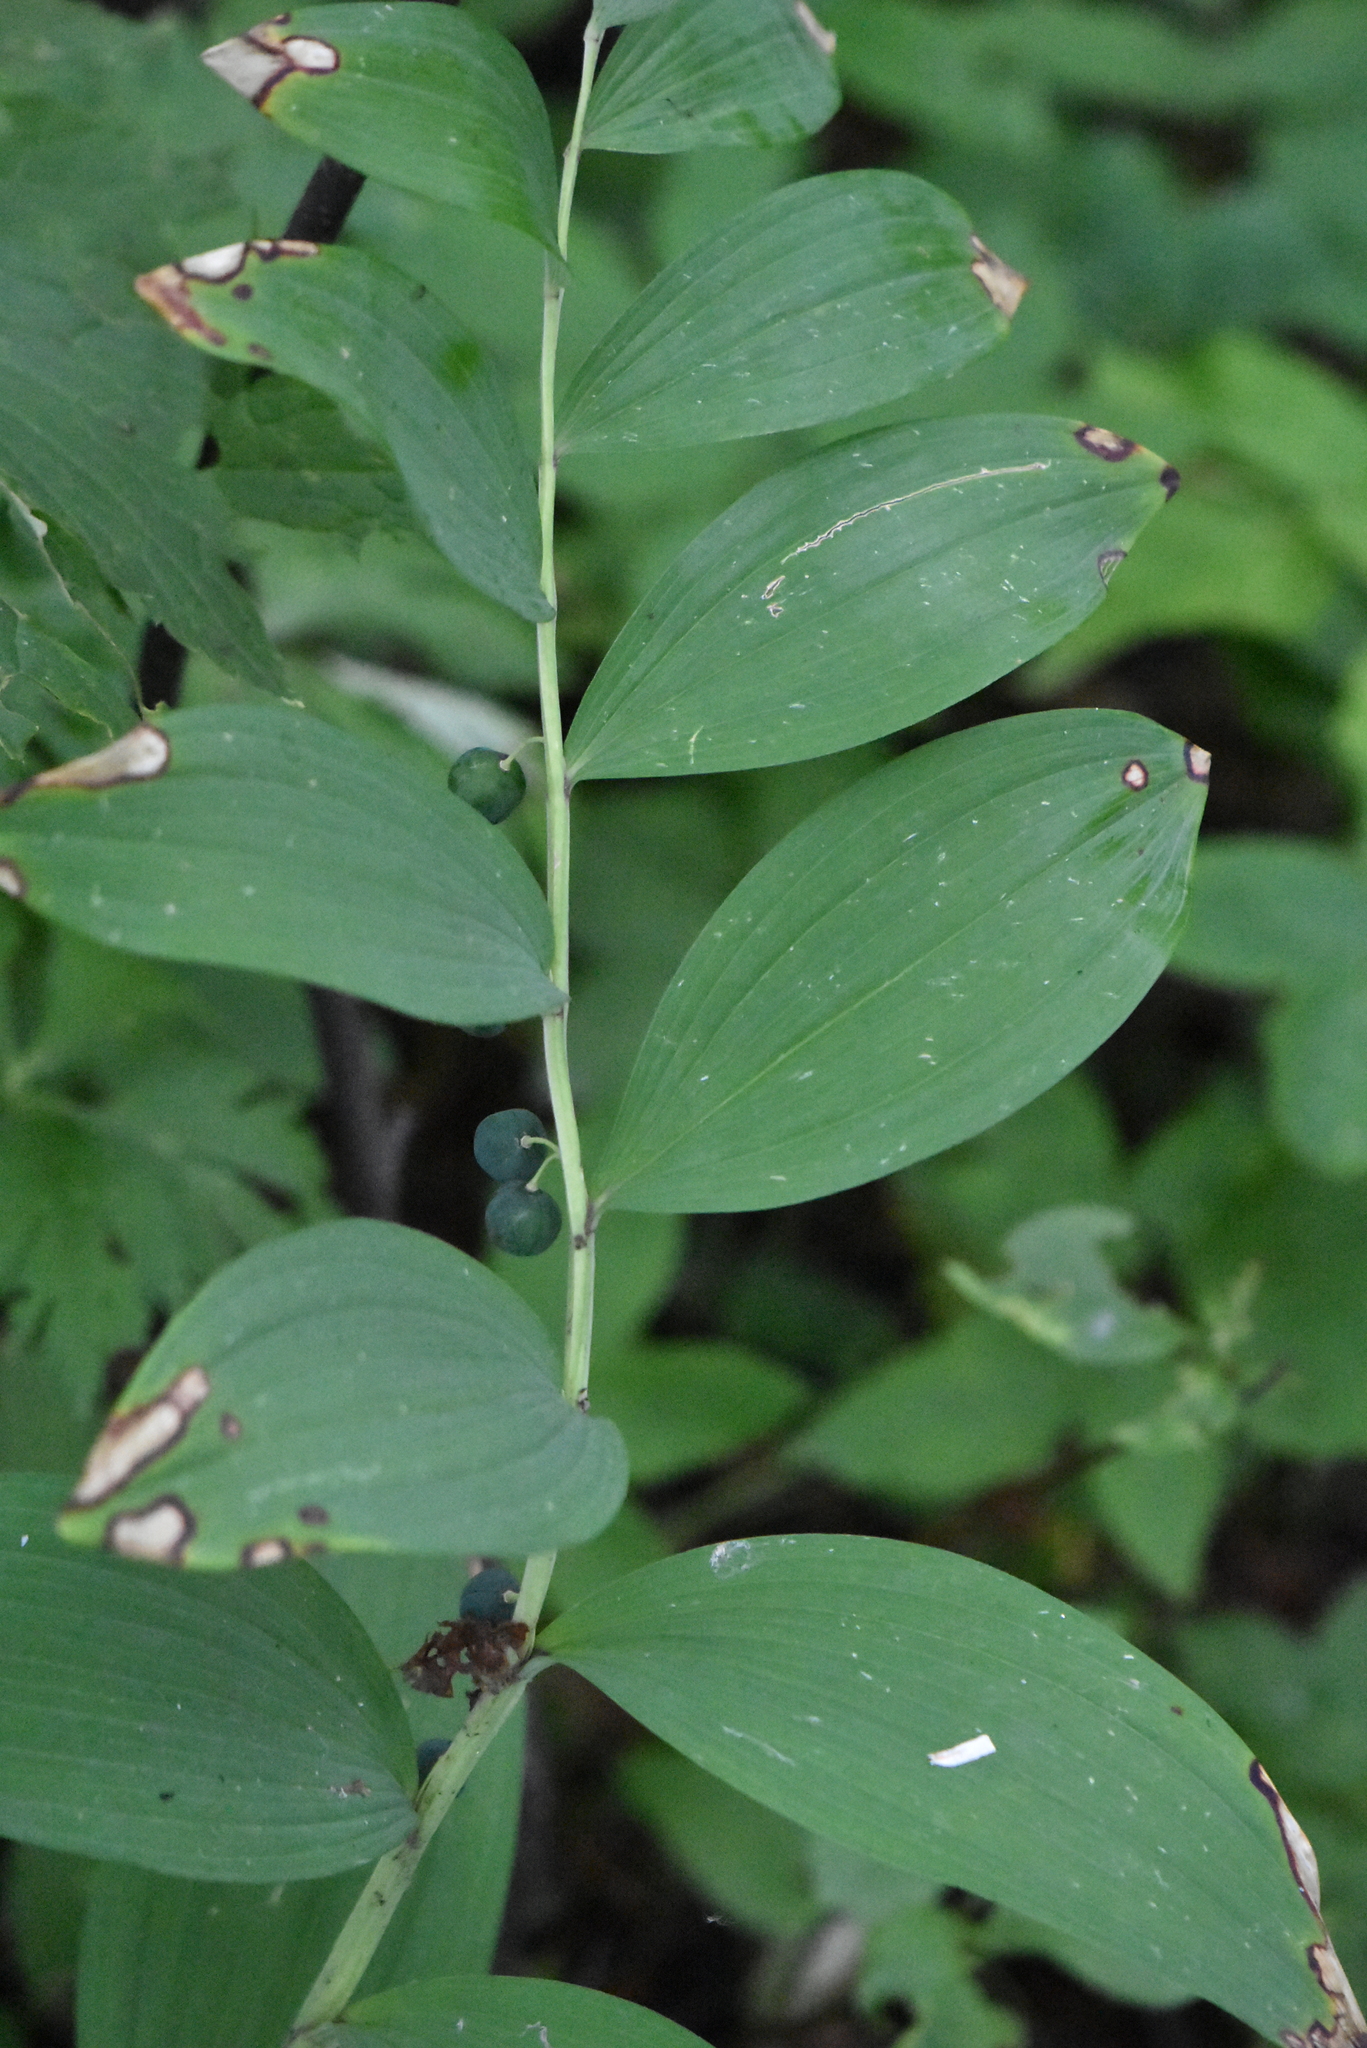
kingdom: Plantae
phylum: Tracheophyta
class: Liliopsida
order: Asparagales
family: Asparagaceae
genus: Polygonatum
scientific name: Polygonatum odoratum
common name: Angular solomon's-seal
